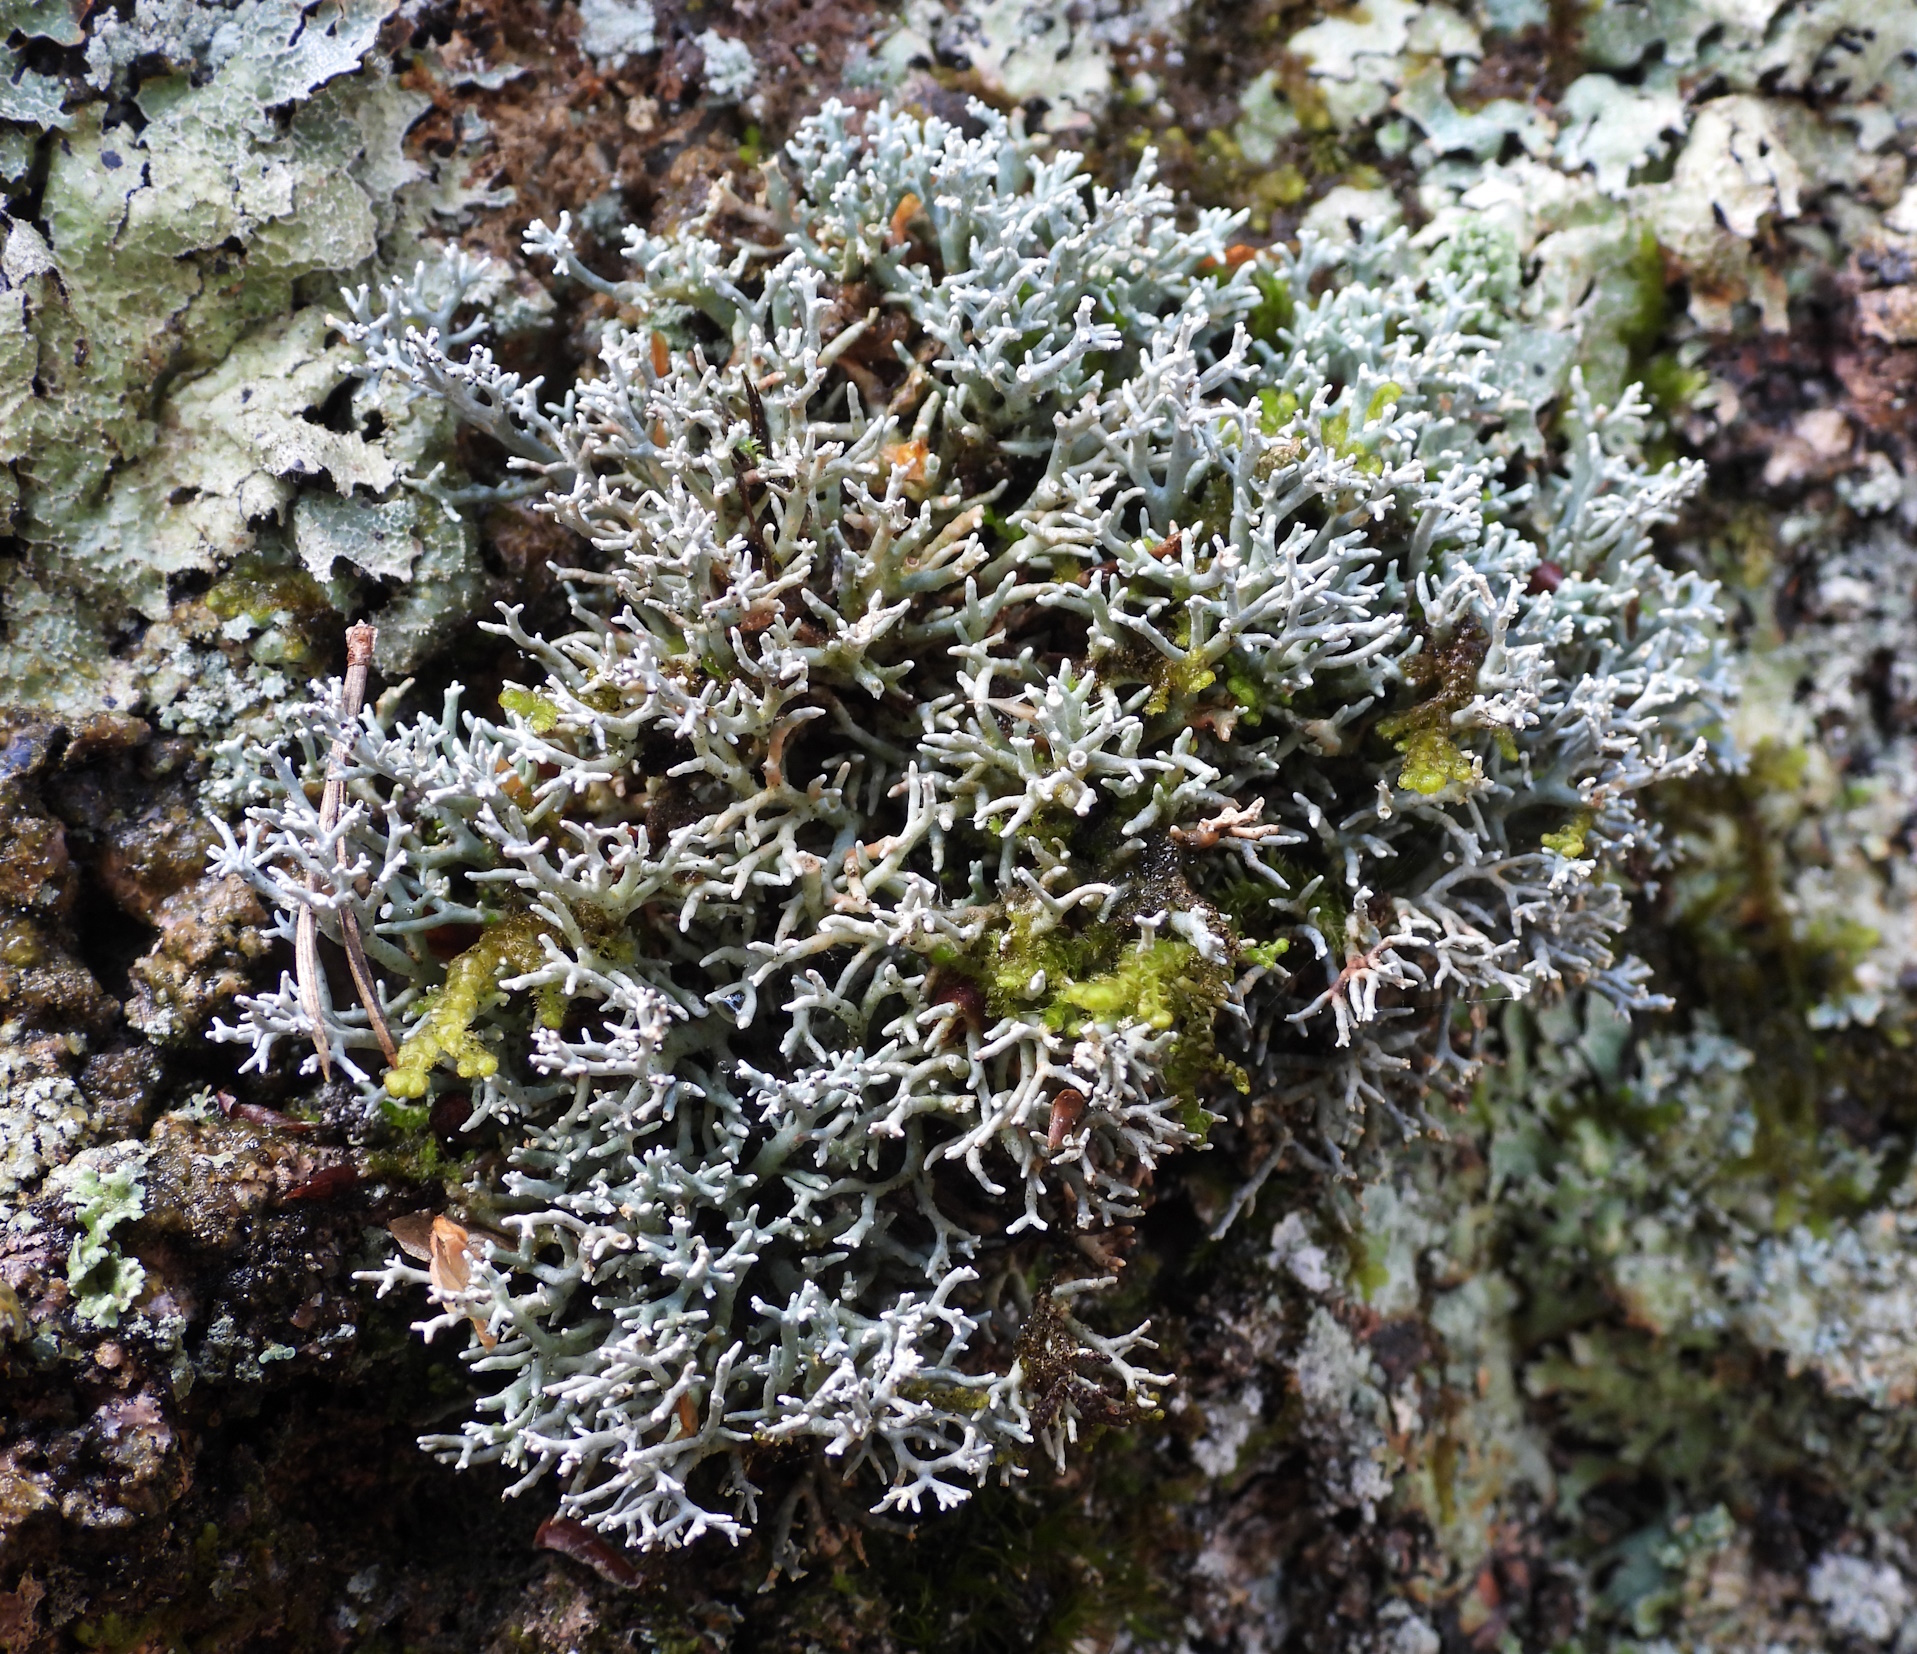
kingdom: Fungi
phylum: Ascomycota
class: Lecanoromycetes
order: Lecanorales
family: Sphaerophoraceae
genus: Sphaerophorus
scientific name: Sphaerophorus fragilis
